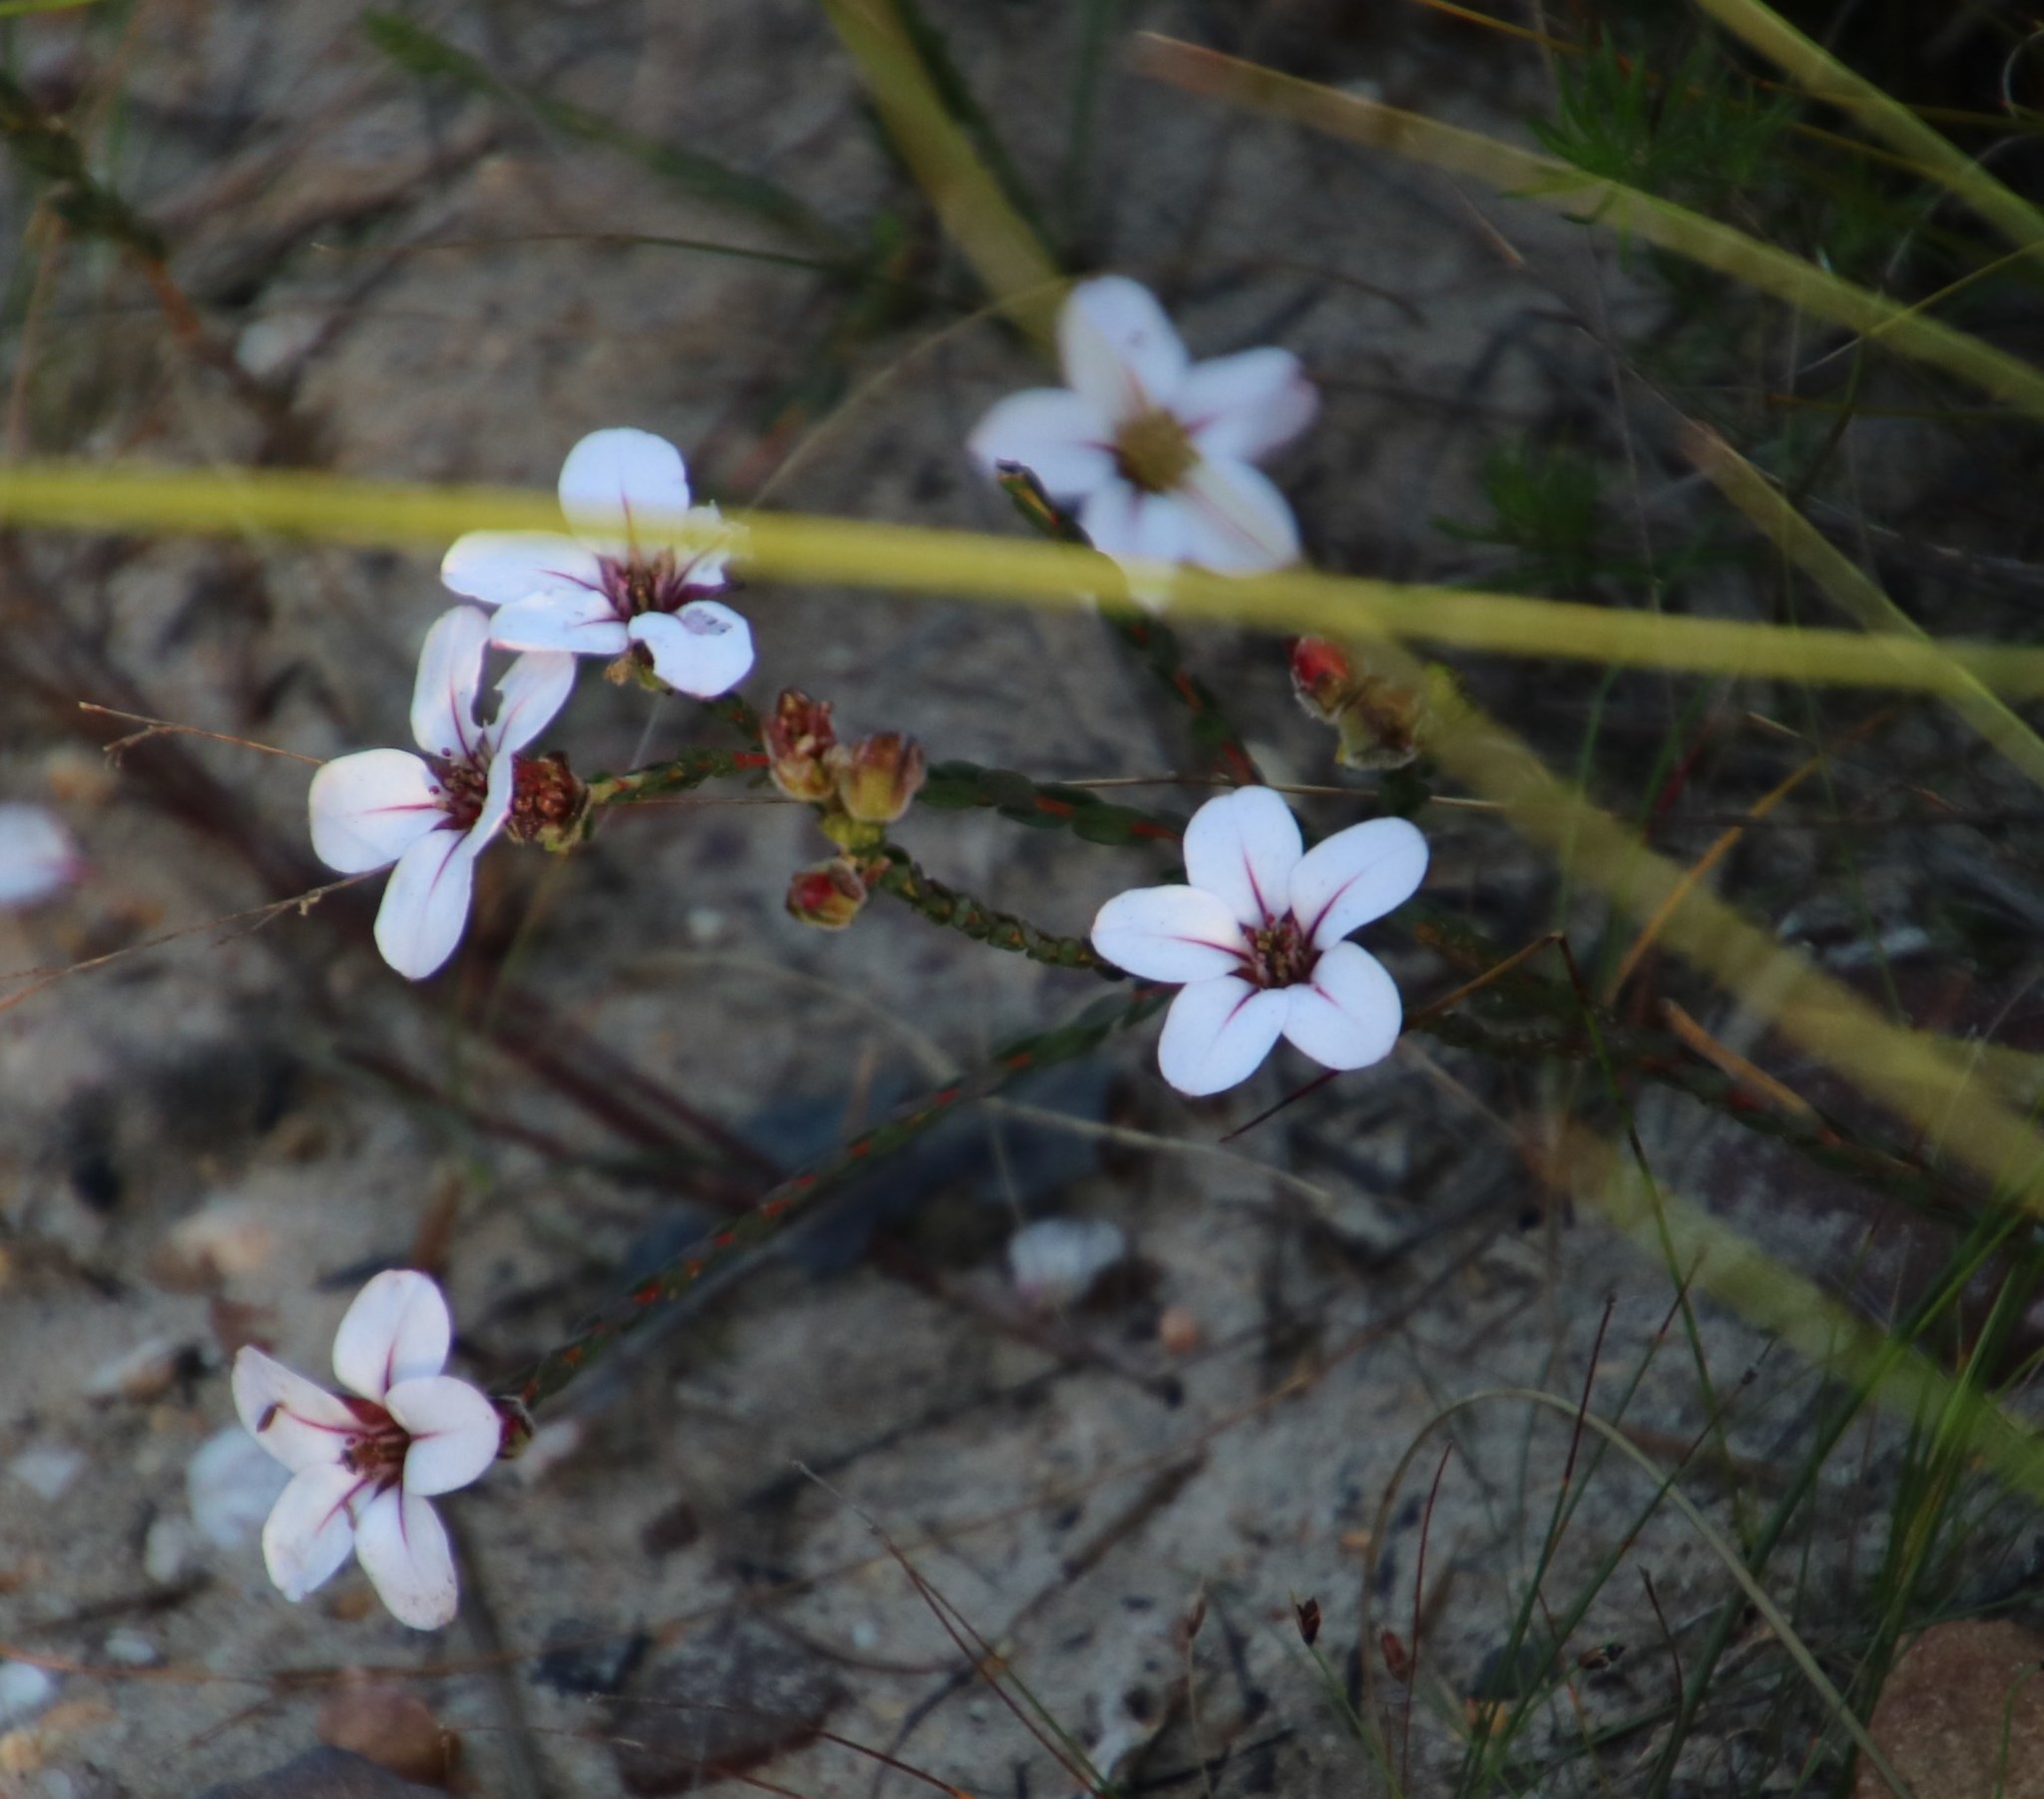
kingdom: Plantae
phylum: Tracheophyta
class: Magnoliopsida
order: Sapindales
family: Rutaceae
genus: Adenandra
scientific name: Adenandra villosa
